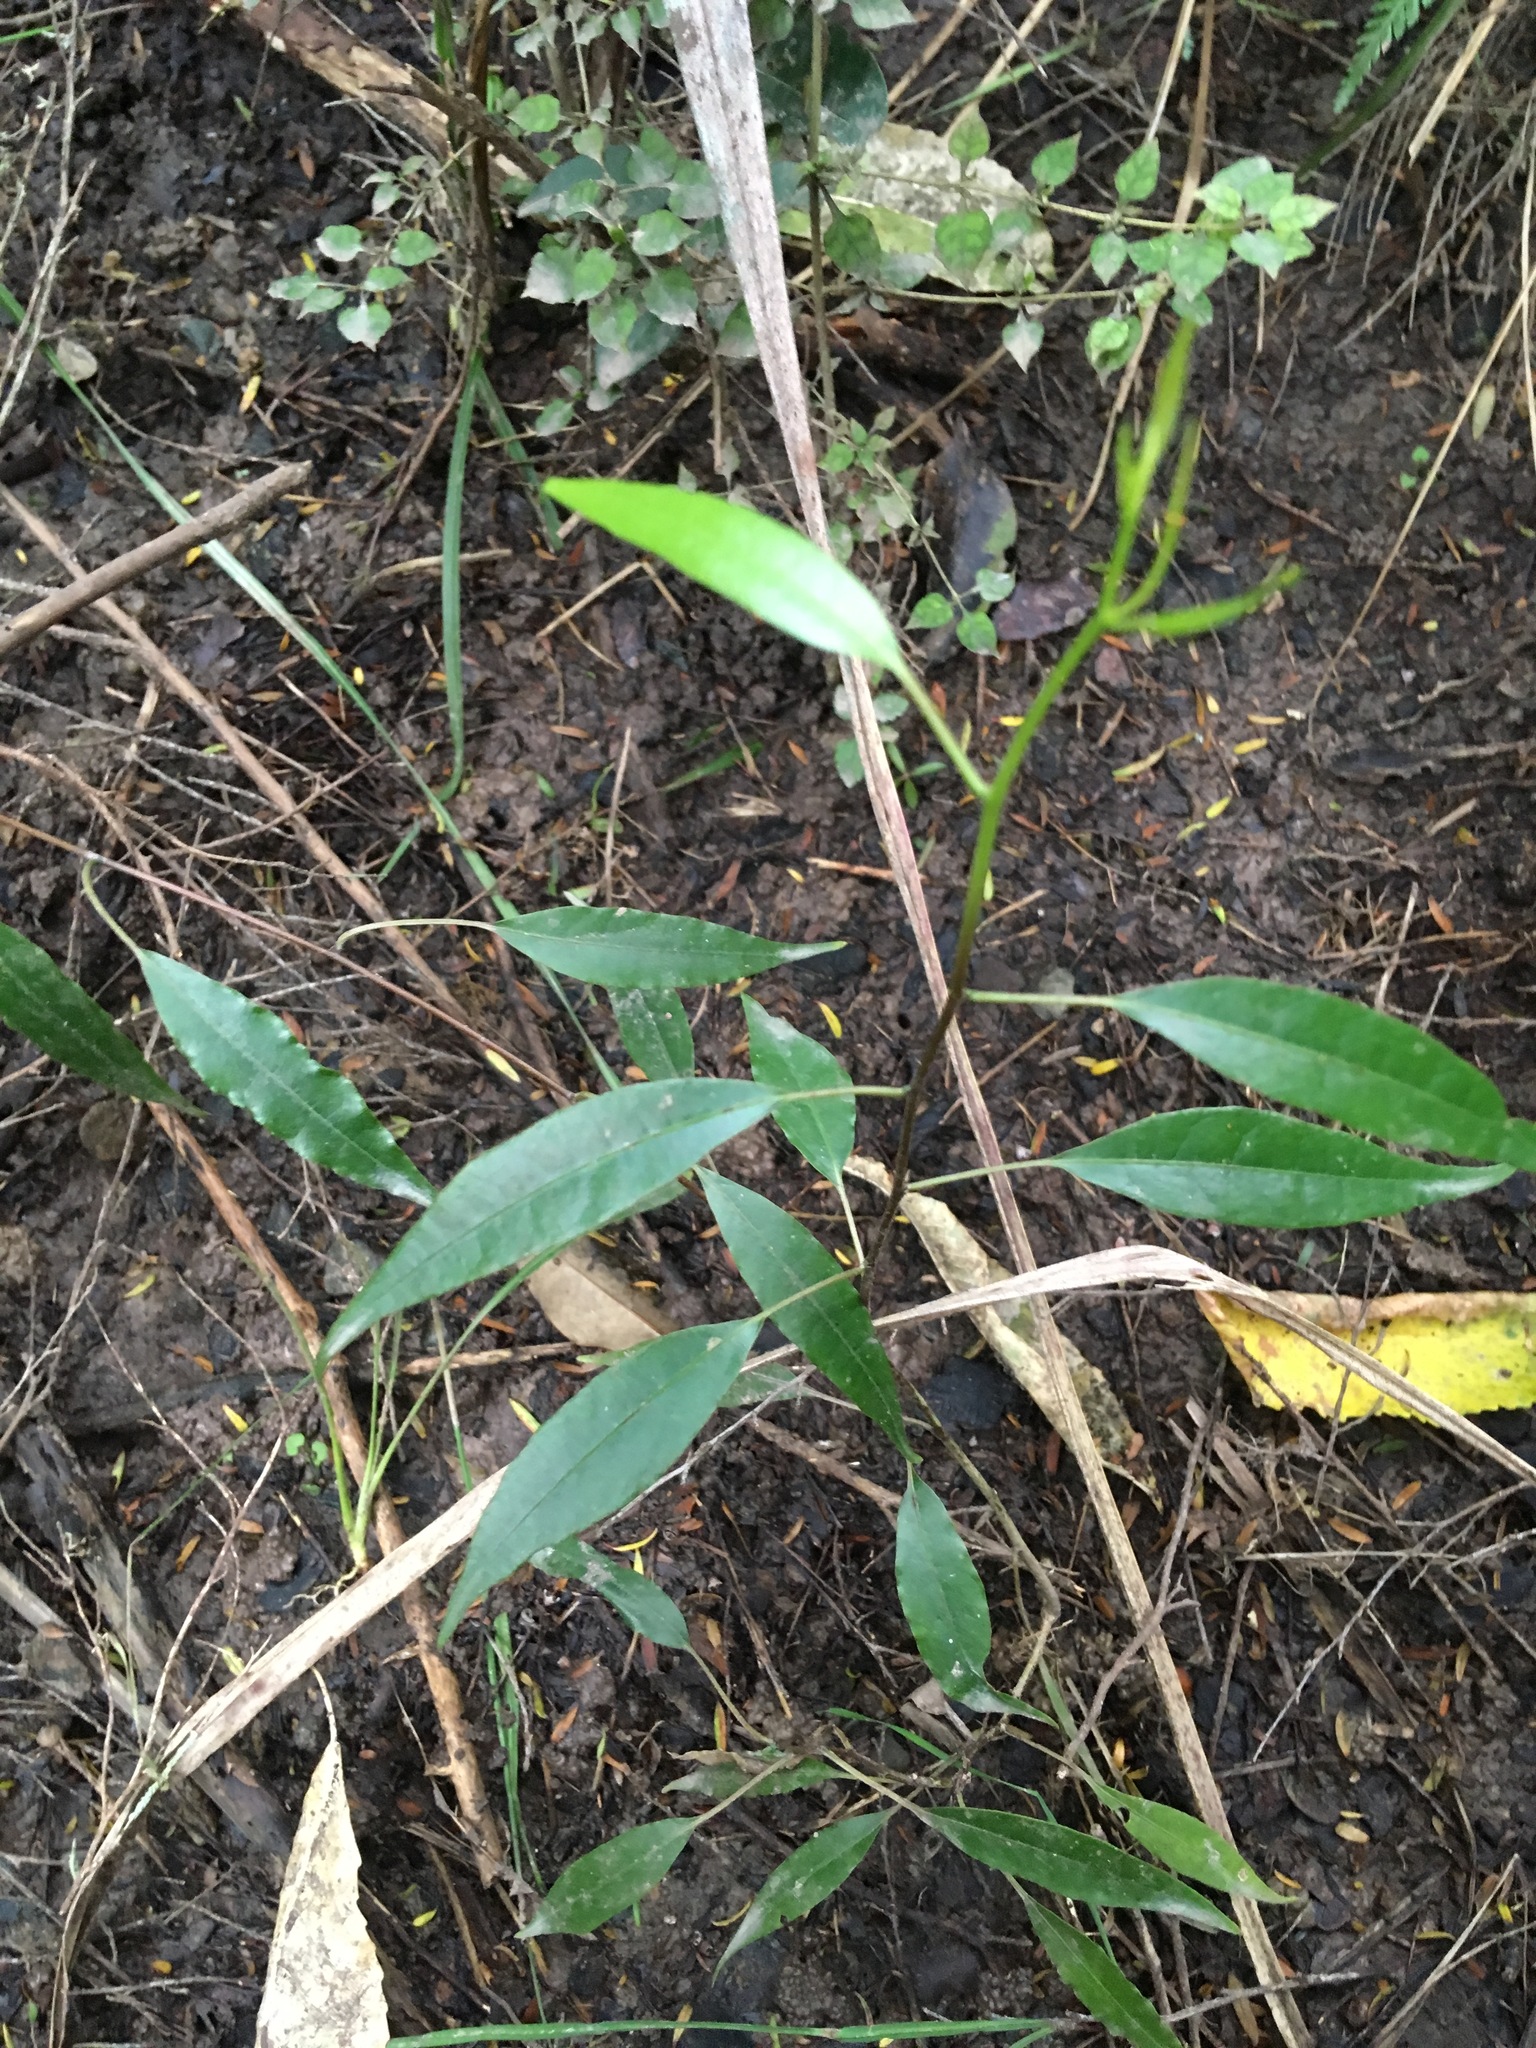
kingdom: Plantae
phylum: Tracheophyta
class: Magnoliopsida
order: Malpighiales
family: Passifloraceae
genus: Passiflora
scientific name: Passiflora tetrandra
